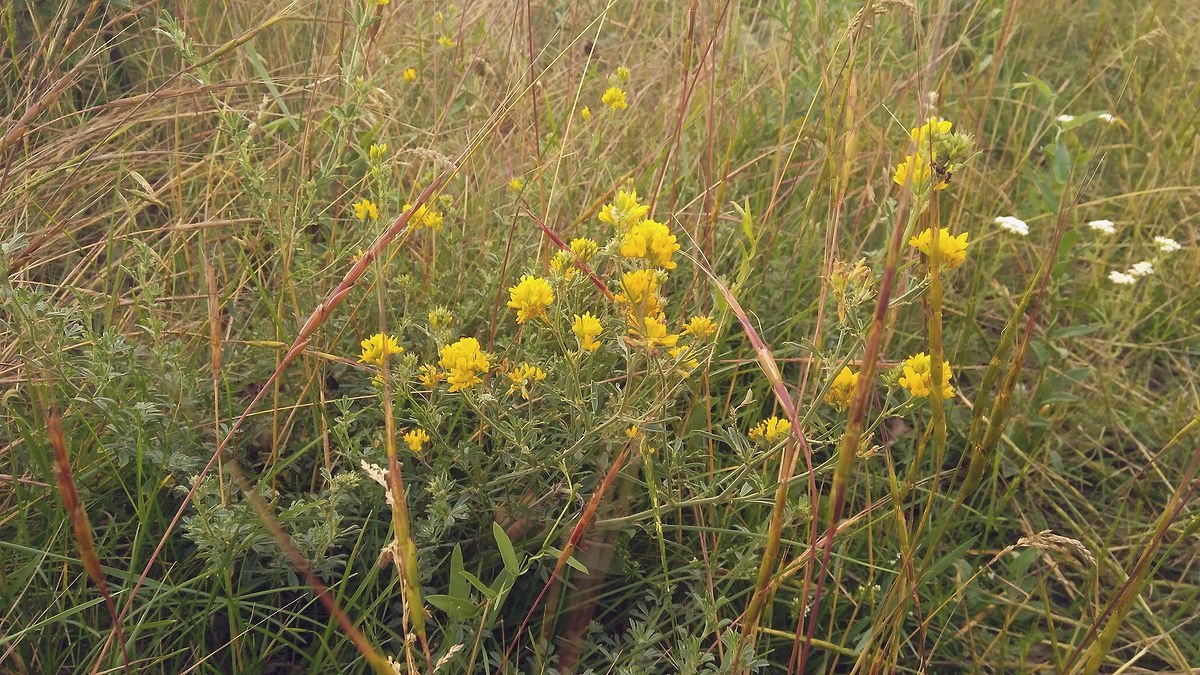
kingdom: Plantae
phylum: Tracheophyta
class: Magnoliopsida
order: Fabales
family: Fabaceae
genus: Medicago
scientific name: Medicago falcata
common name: Sickle medick
